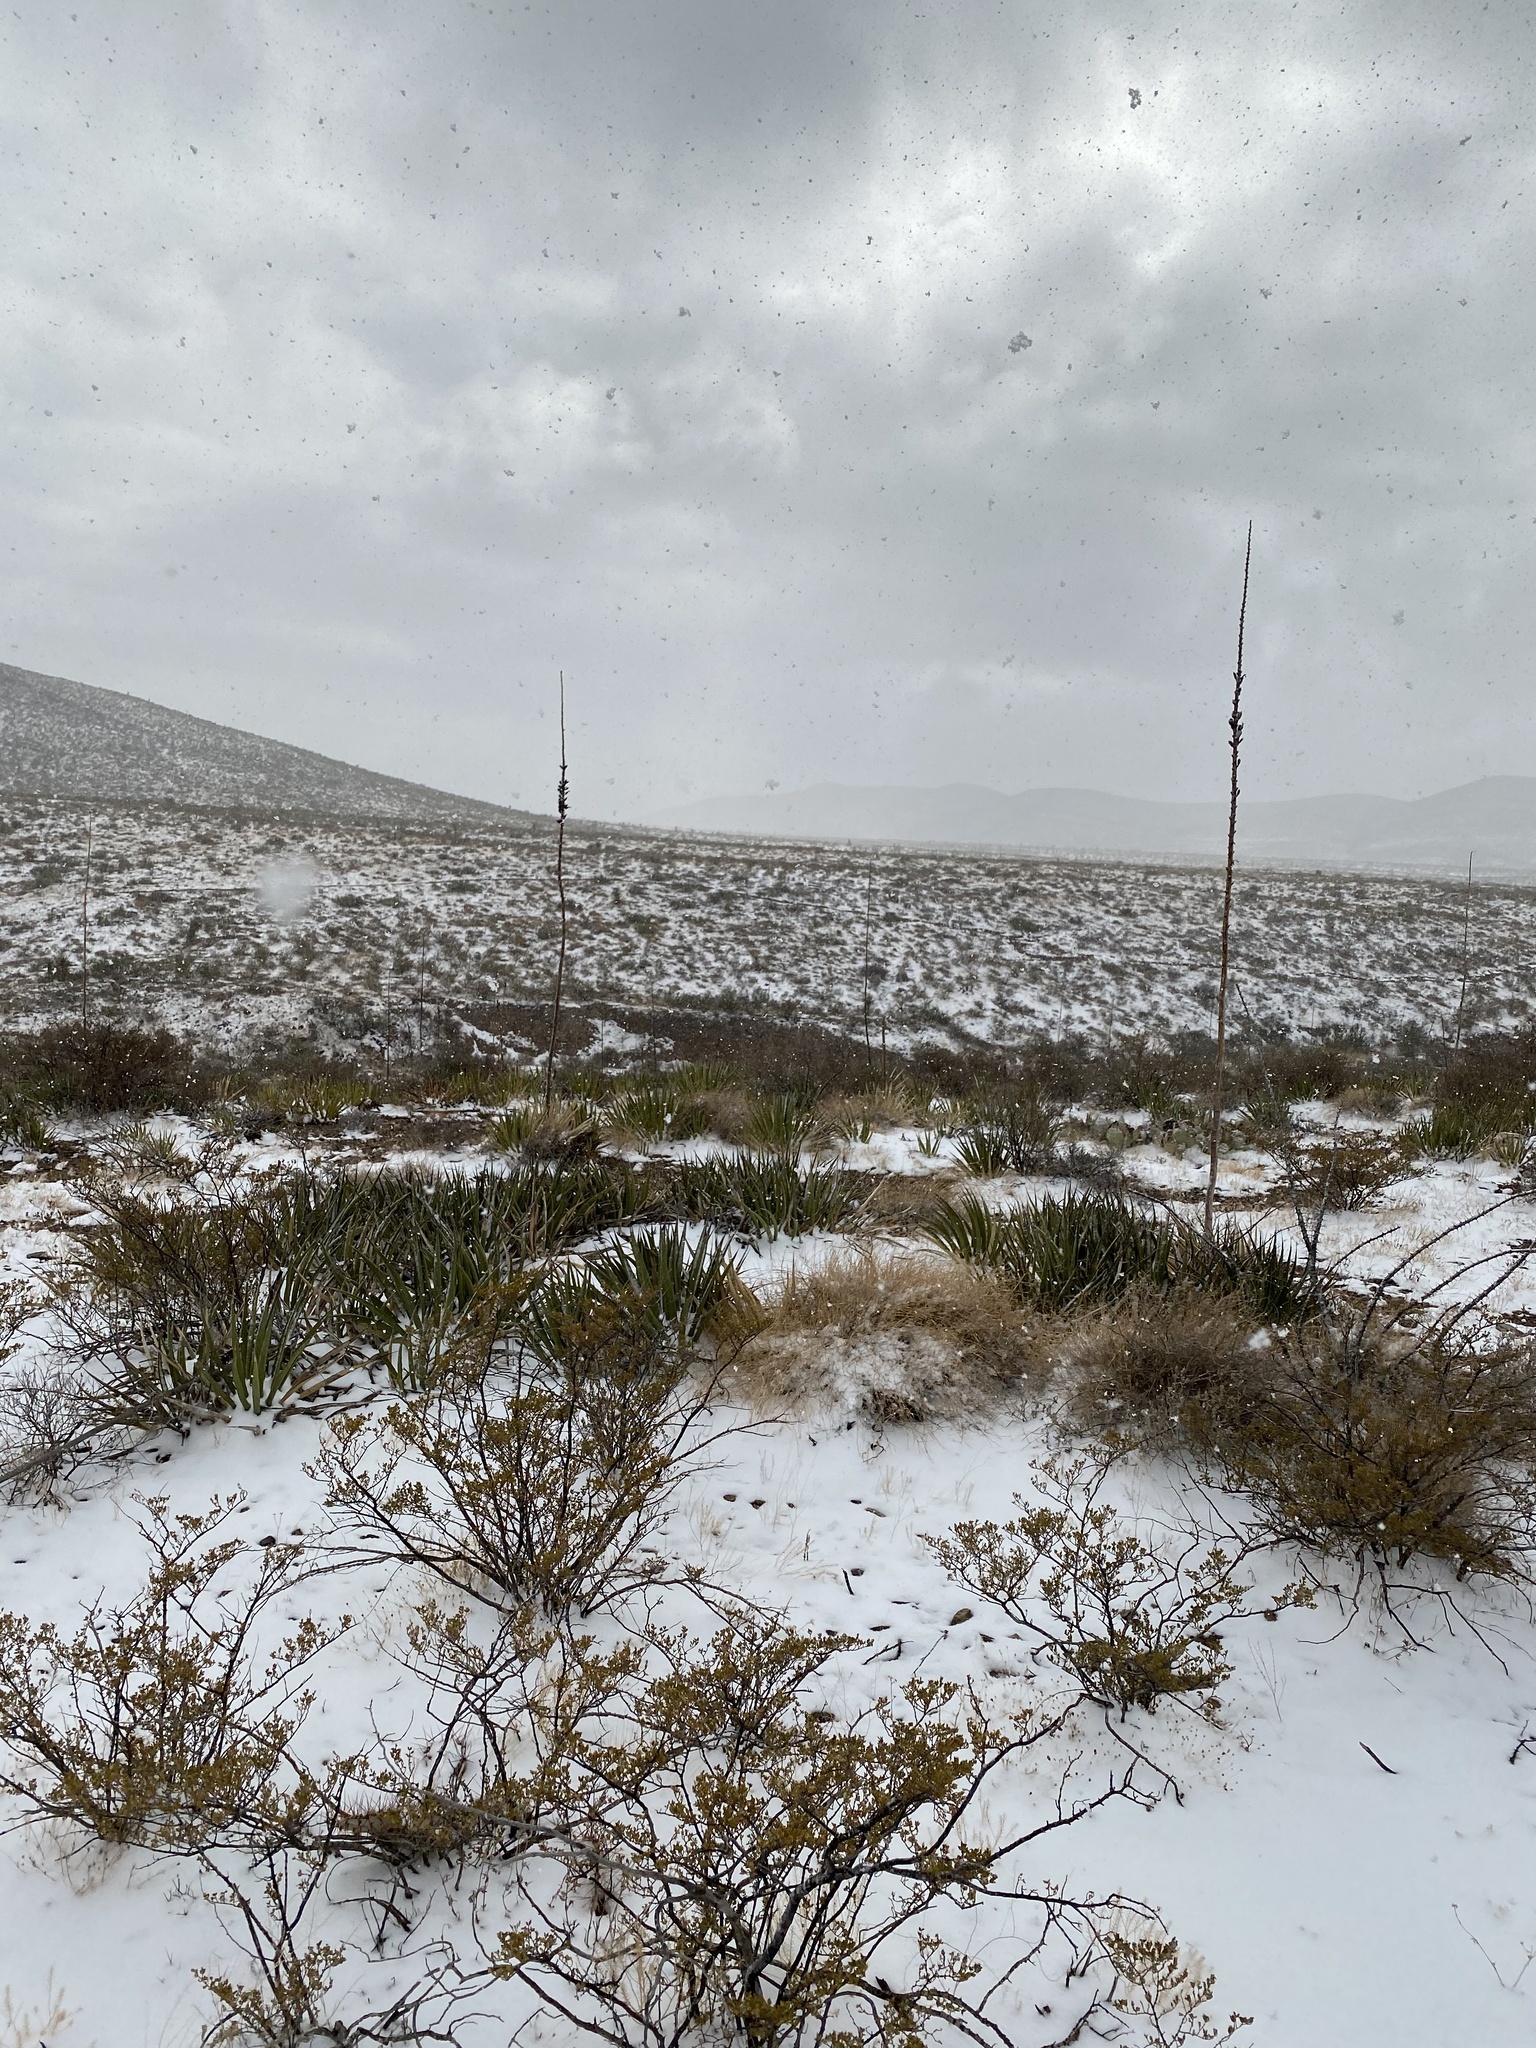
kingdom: Plantae
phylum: Tracheophyta
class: Liliopsida
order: Asparagales
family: Asparagaceae
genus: Agave
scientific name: Agave lechuguilla
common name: Lecheguilla agave
